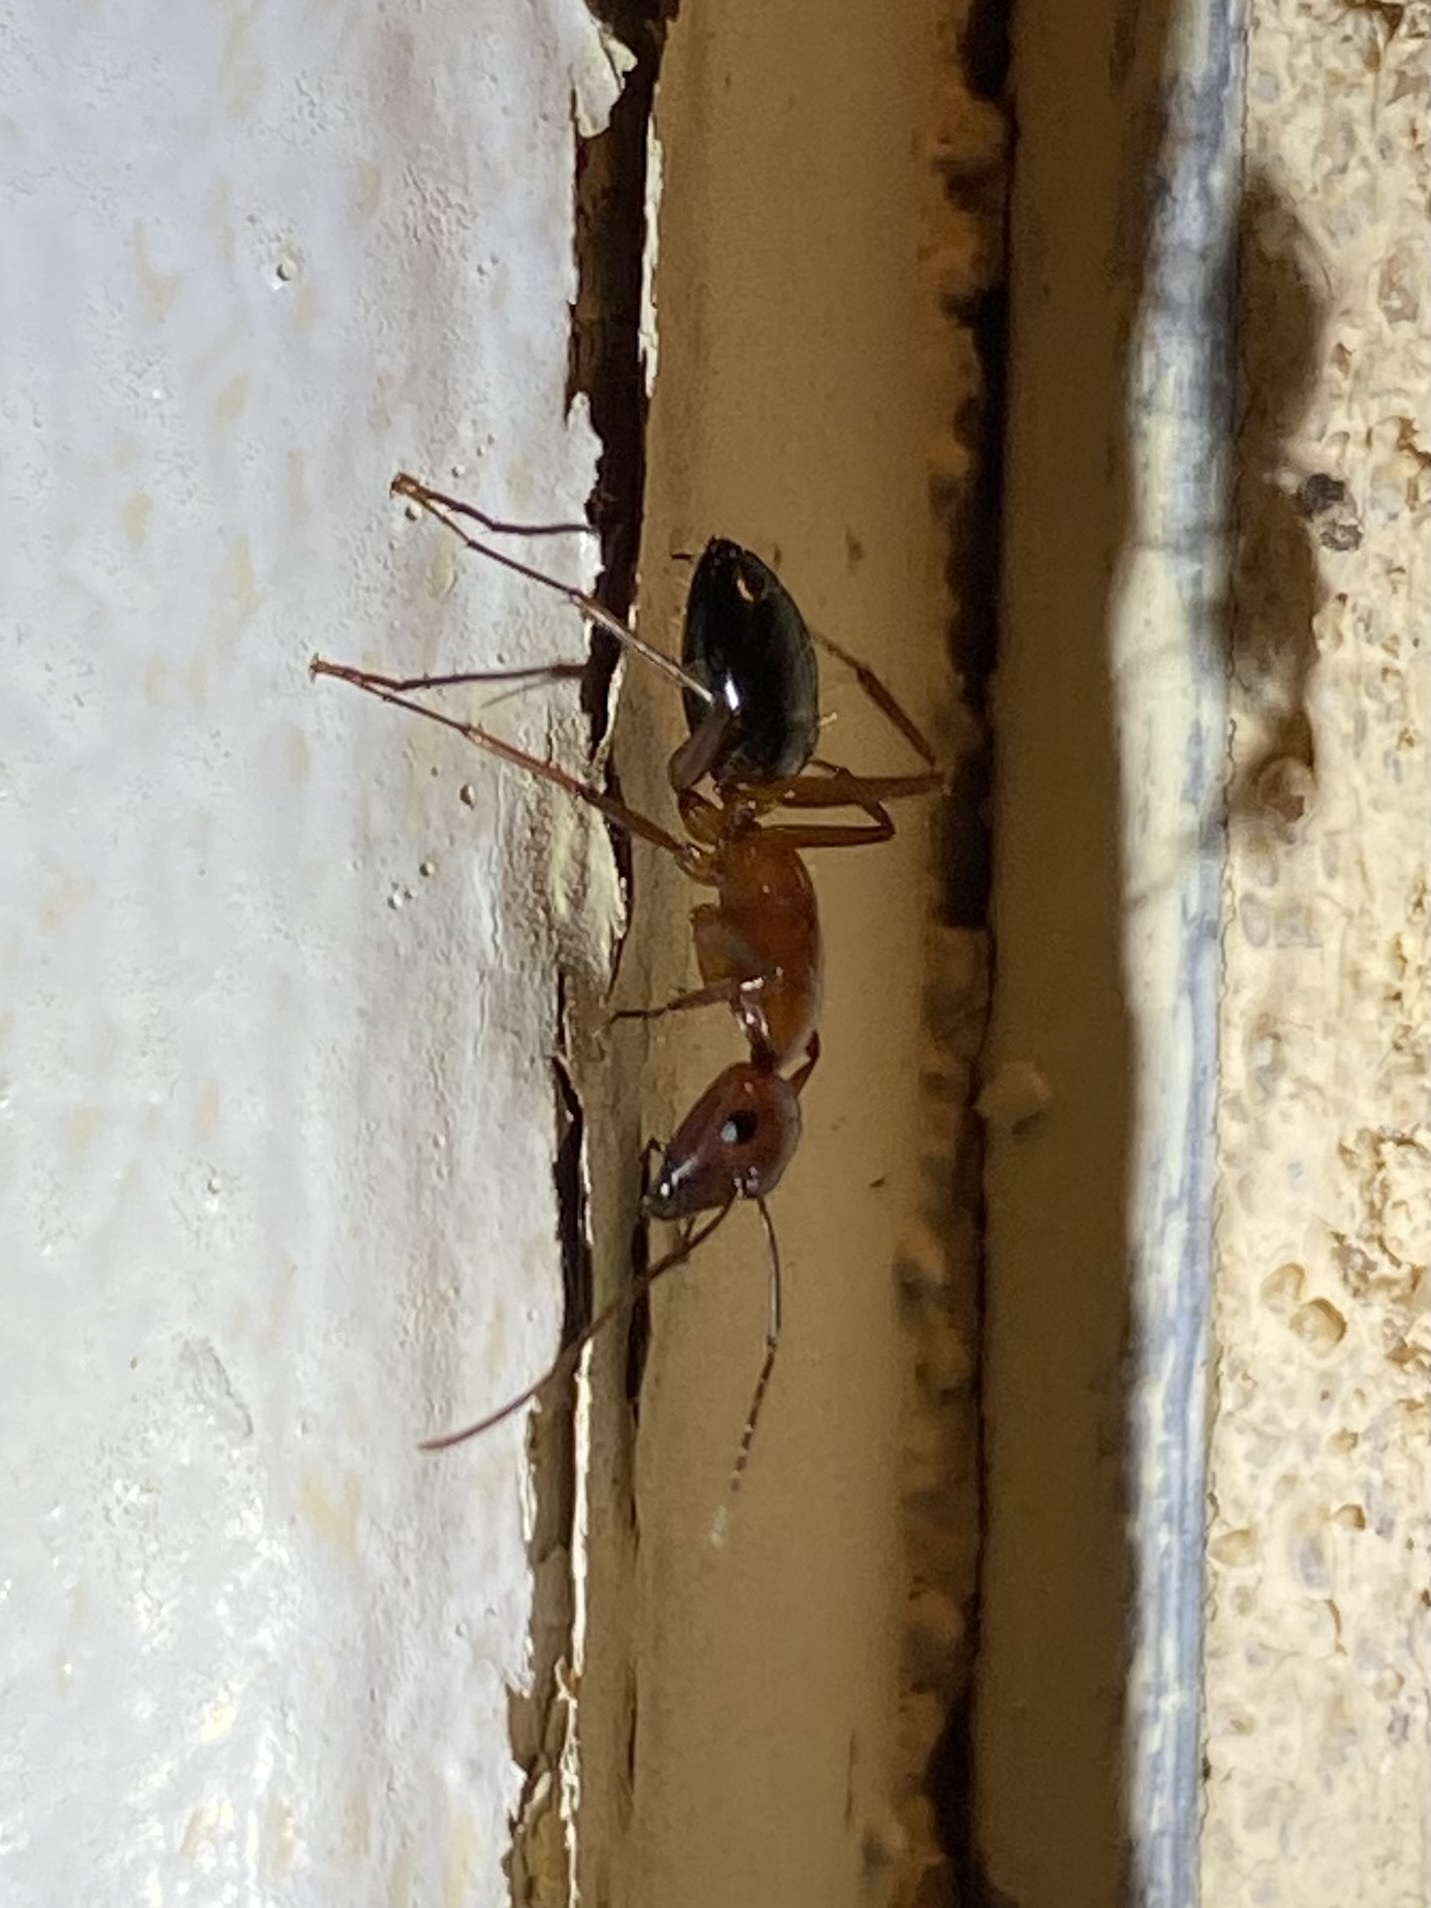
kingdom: Animalia
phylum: Arthropoda
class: Insecta
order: Hymenoptera
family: Formicidae
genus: Camponotus
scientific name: Camponotus
